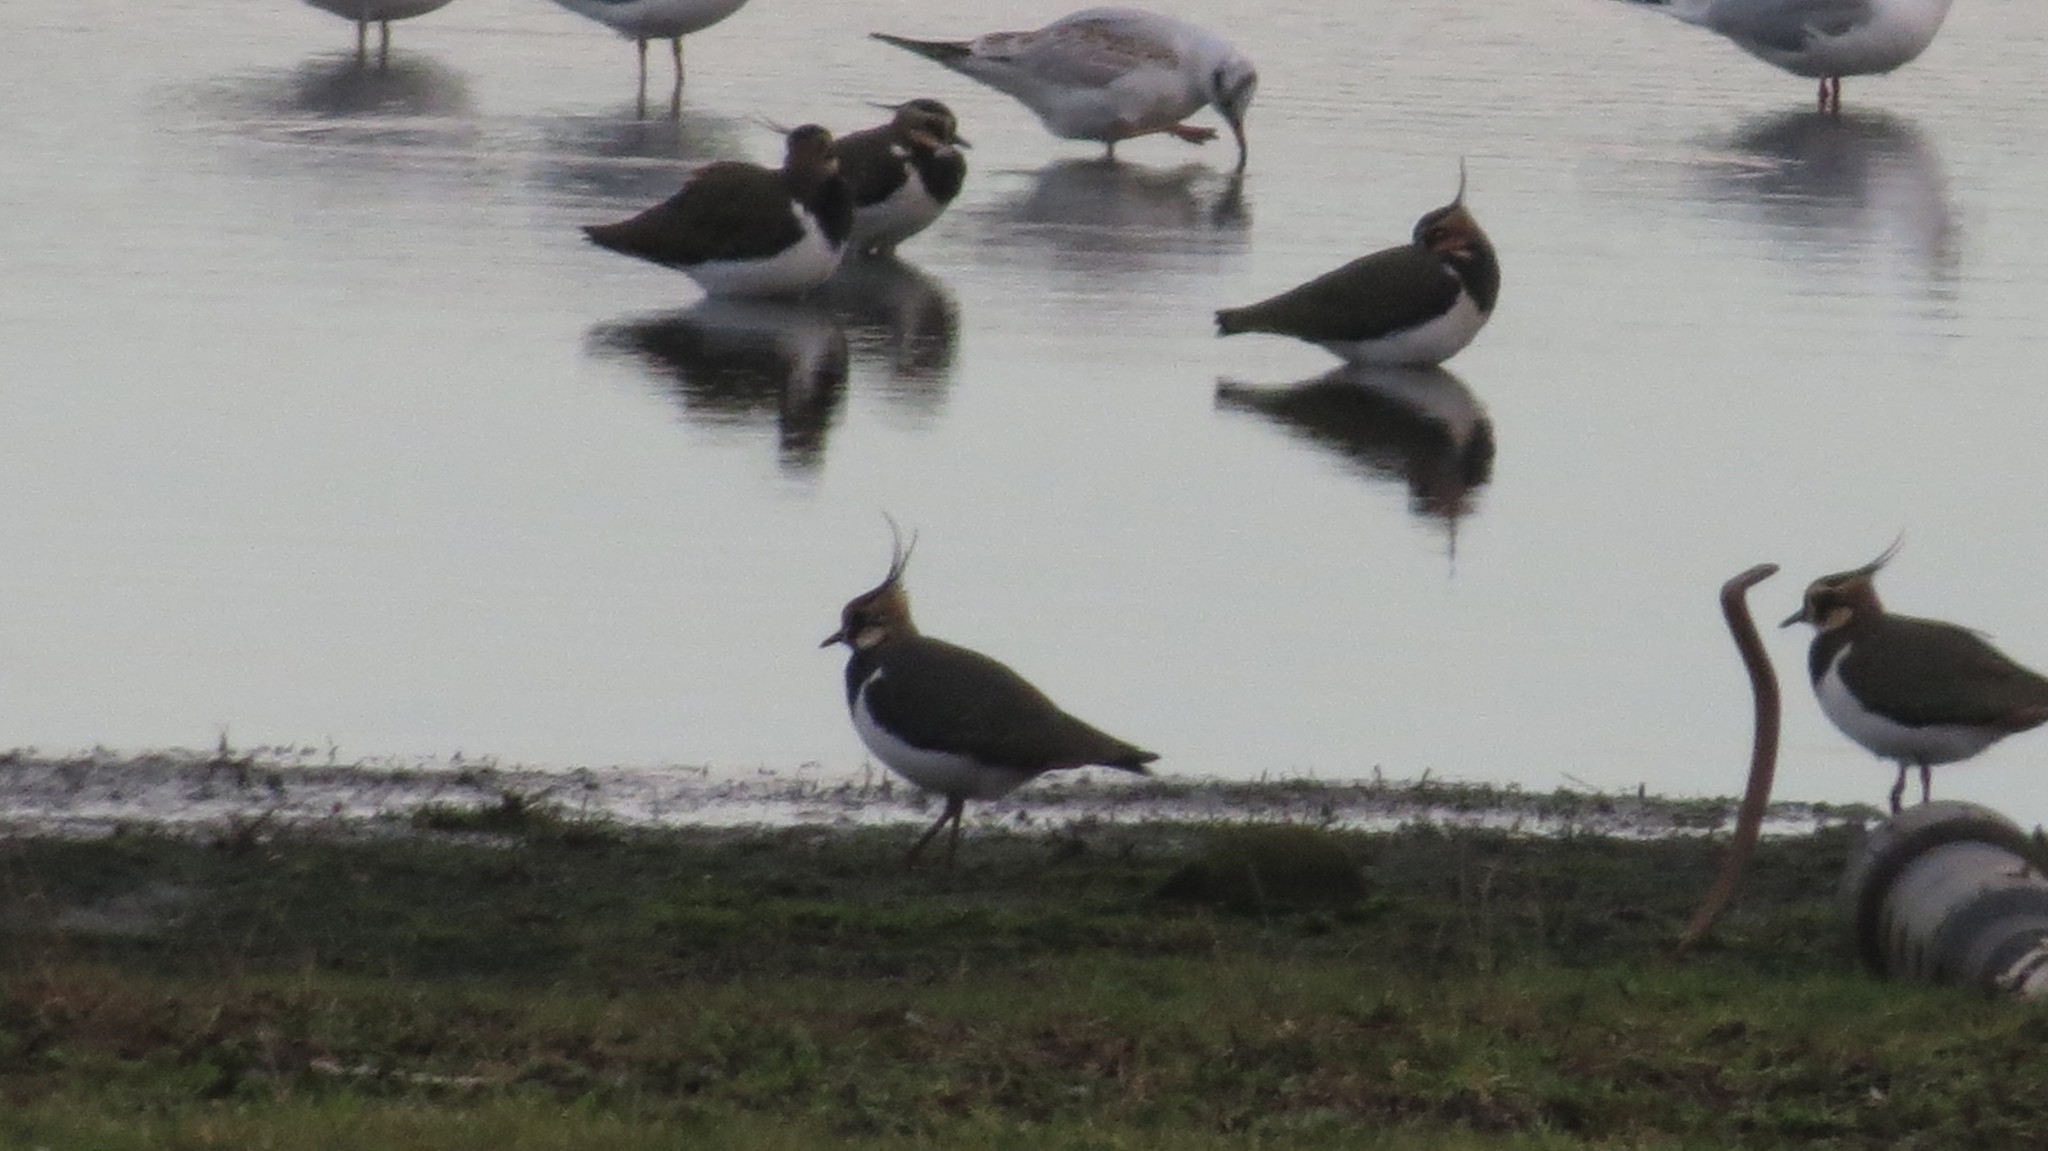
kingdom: Animalia
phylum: Chordata
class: Aves
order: Charadriiformes
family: Charadriidae
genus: Vanellus
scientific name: Vanellus vanellus
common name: Northern lapwing
